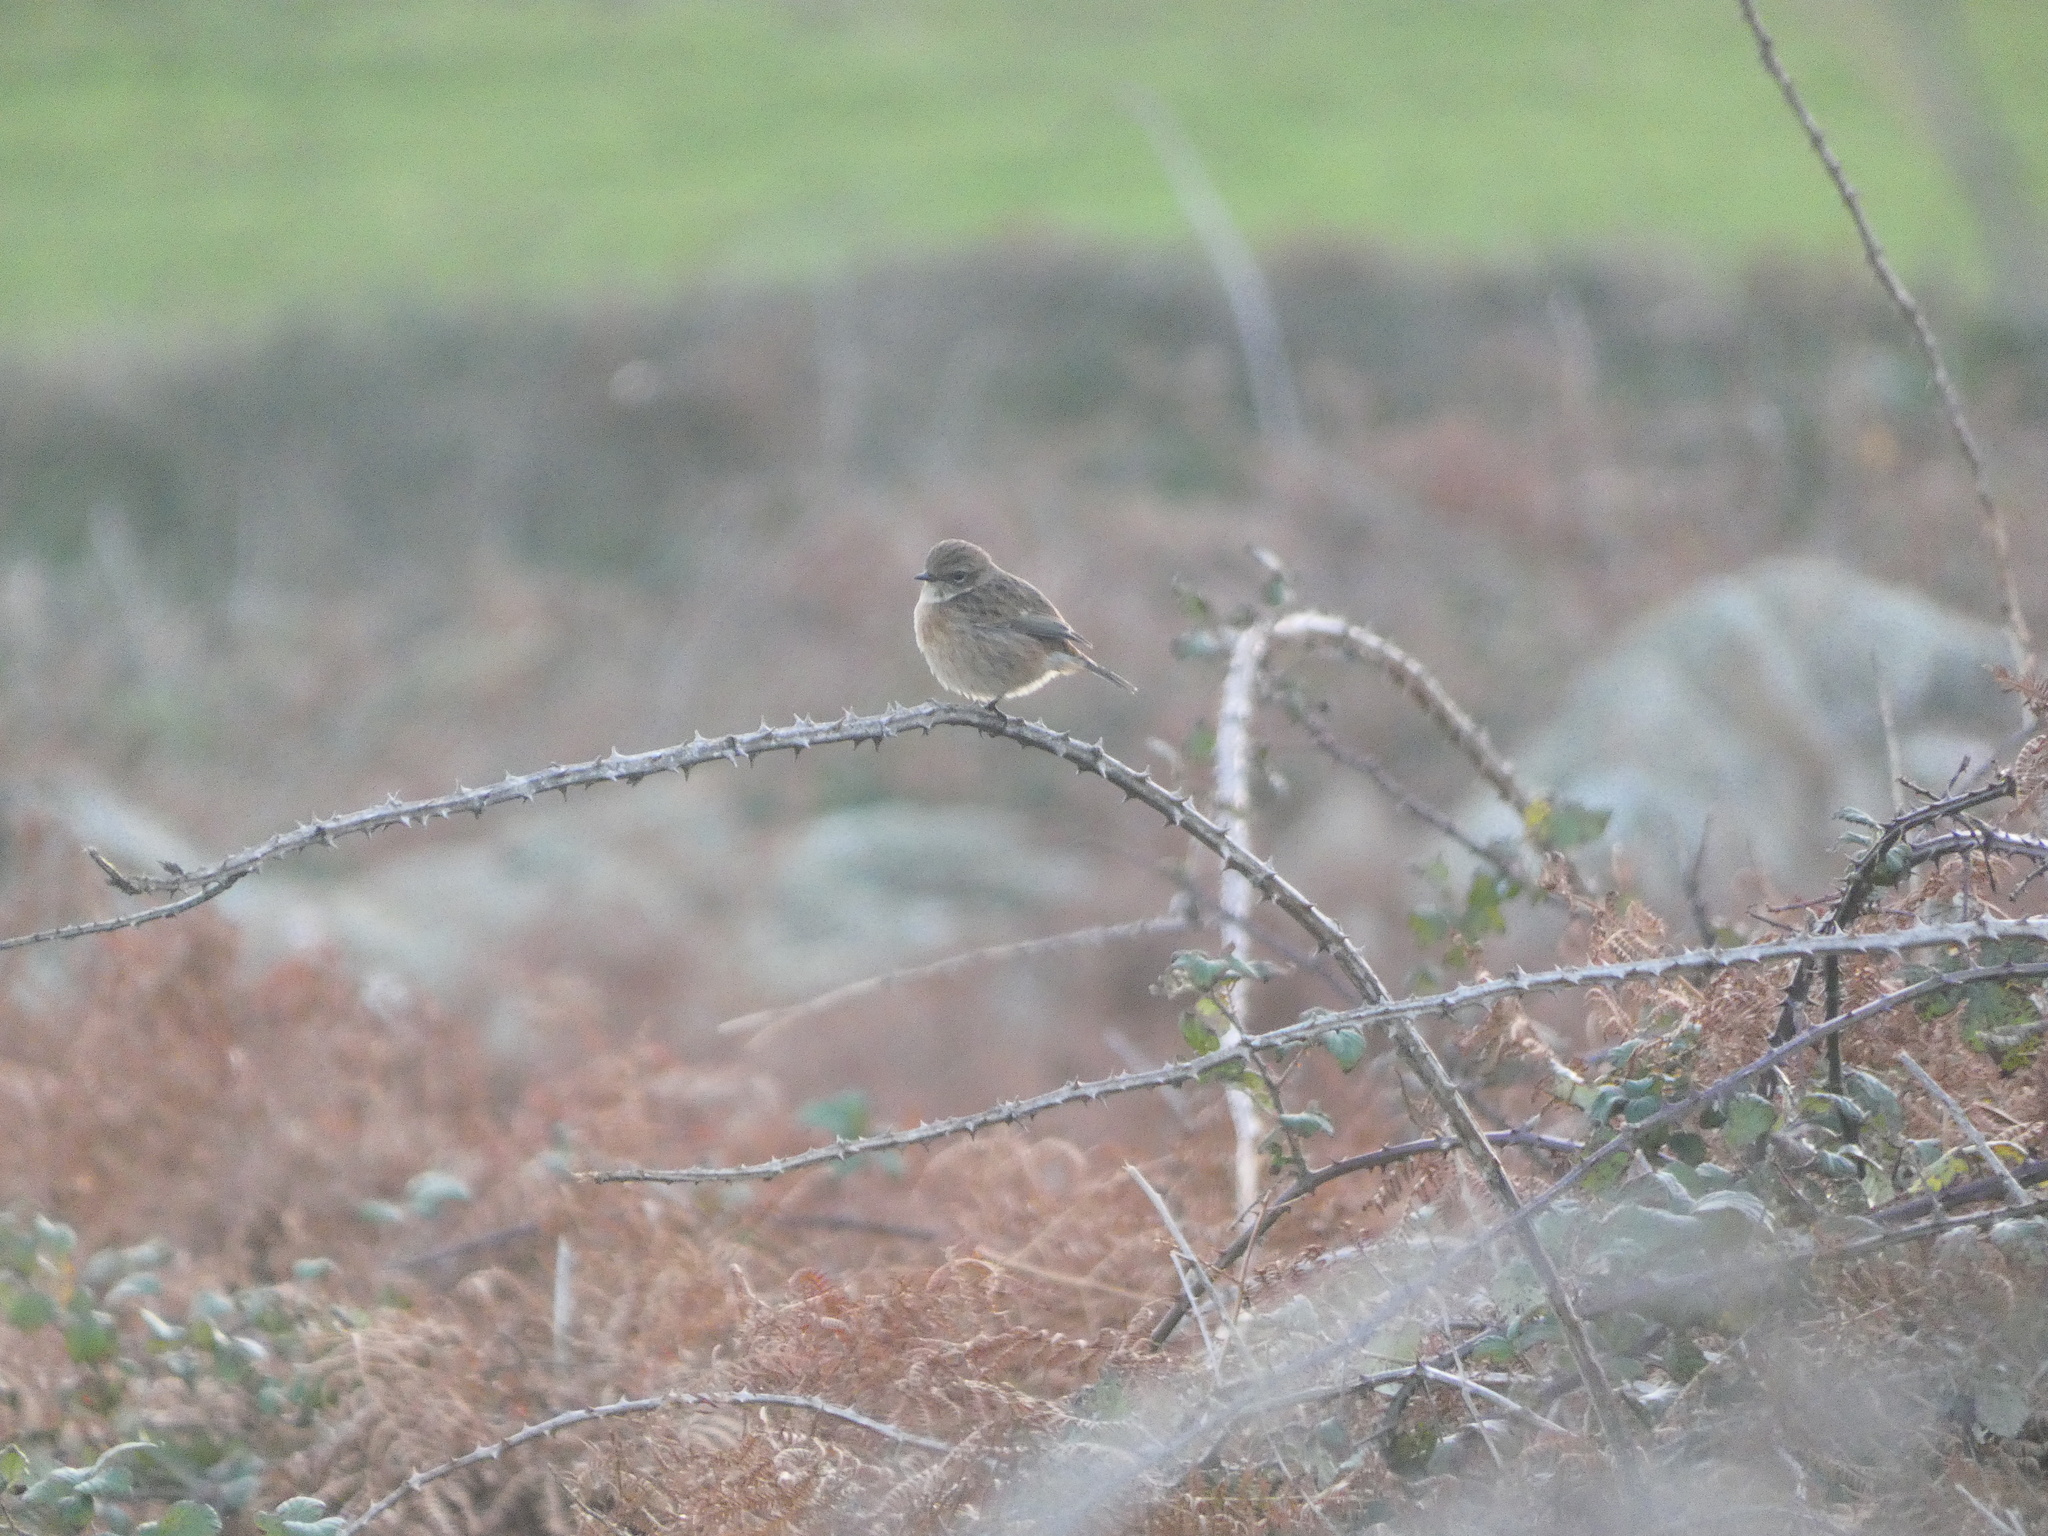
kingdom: Animalia
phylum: Chordata
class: Aves
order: Passeriformes
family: Muscicapidae
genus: Saxicola
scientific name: Saxicola rubicola
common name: European stonechat
